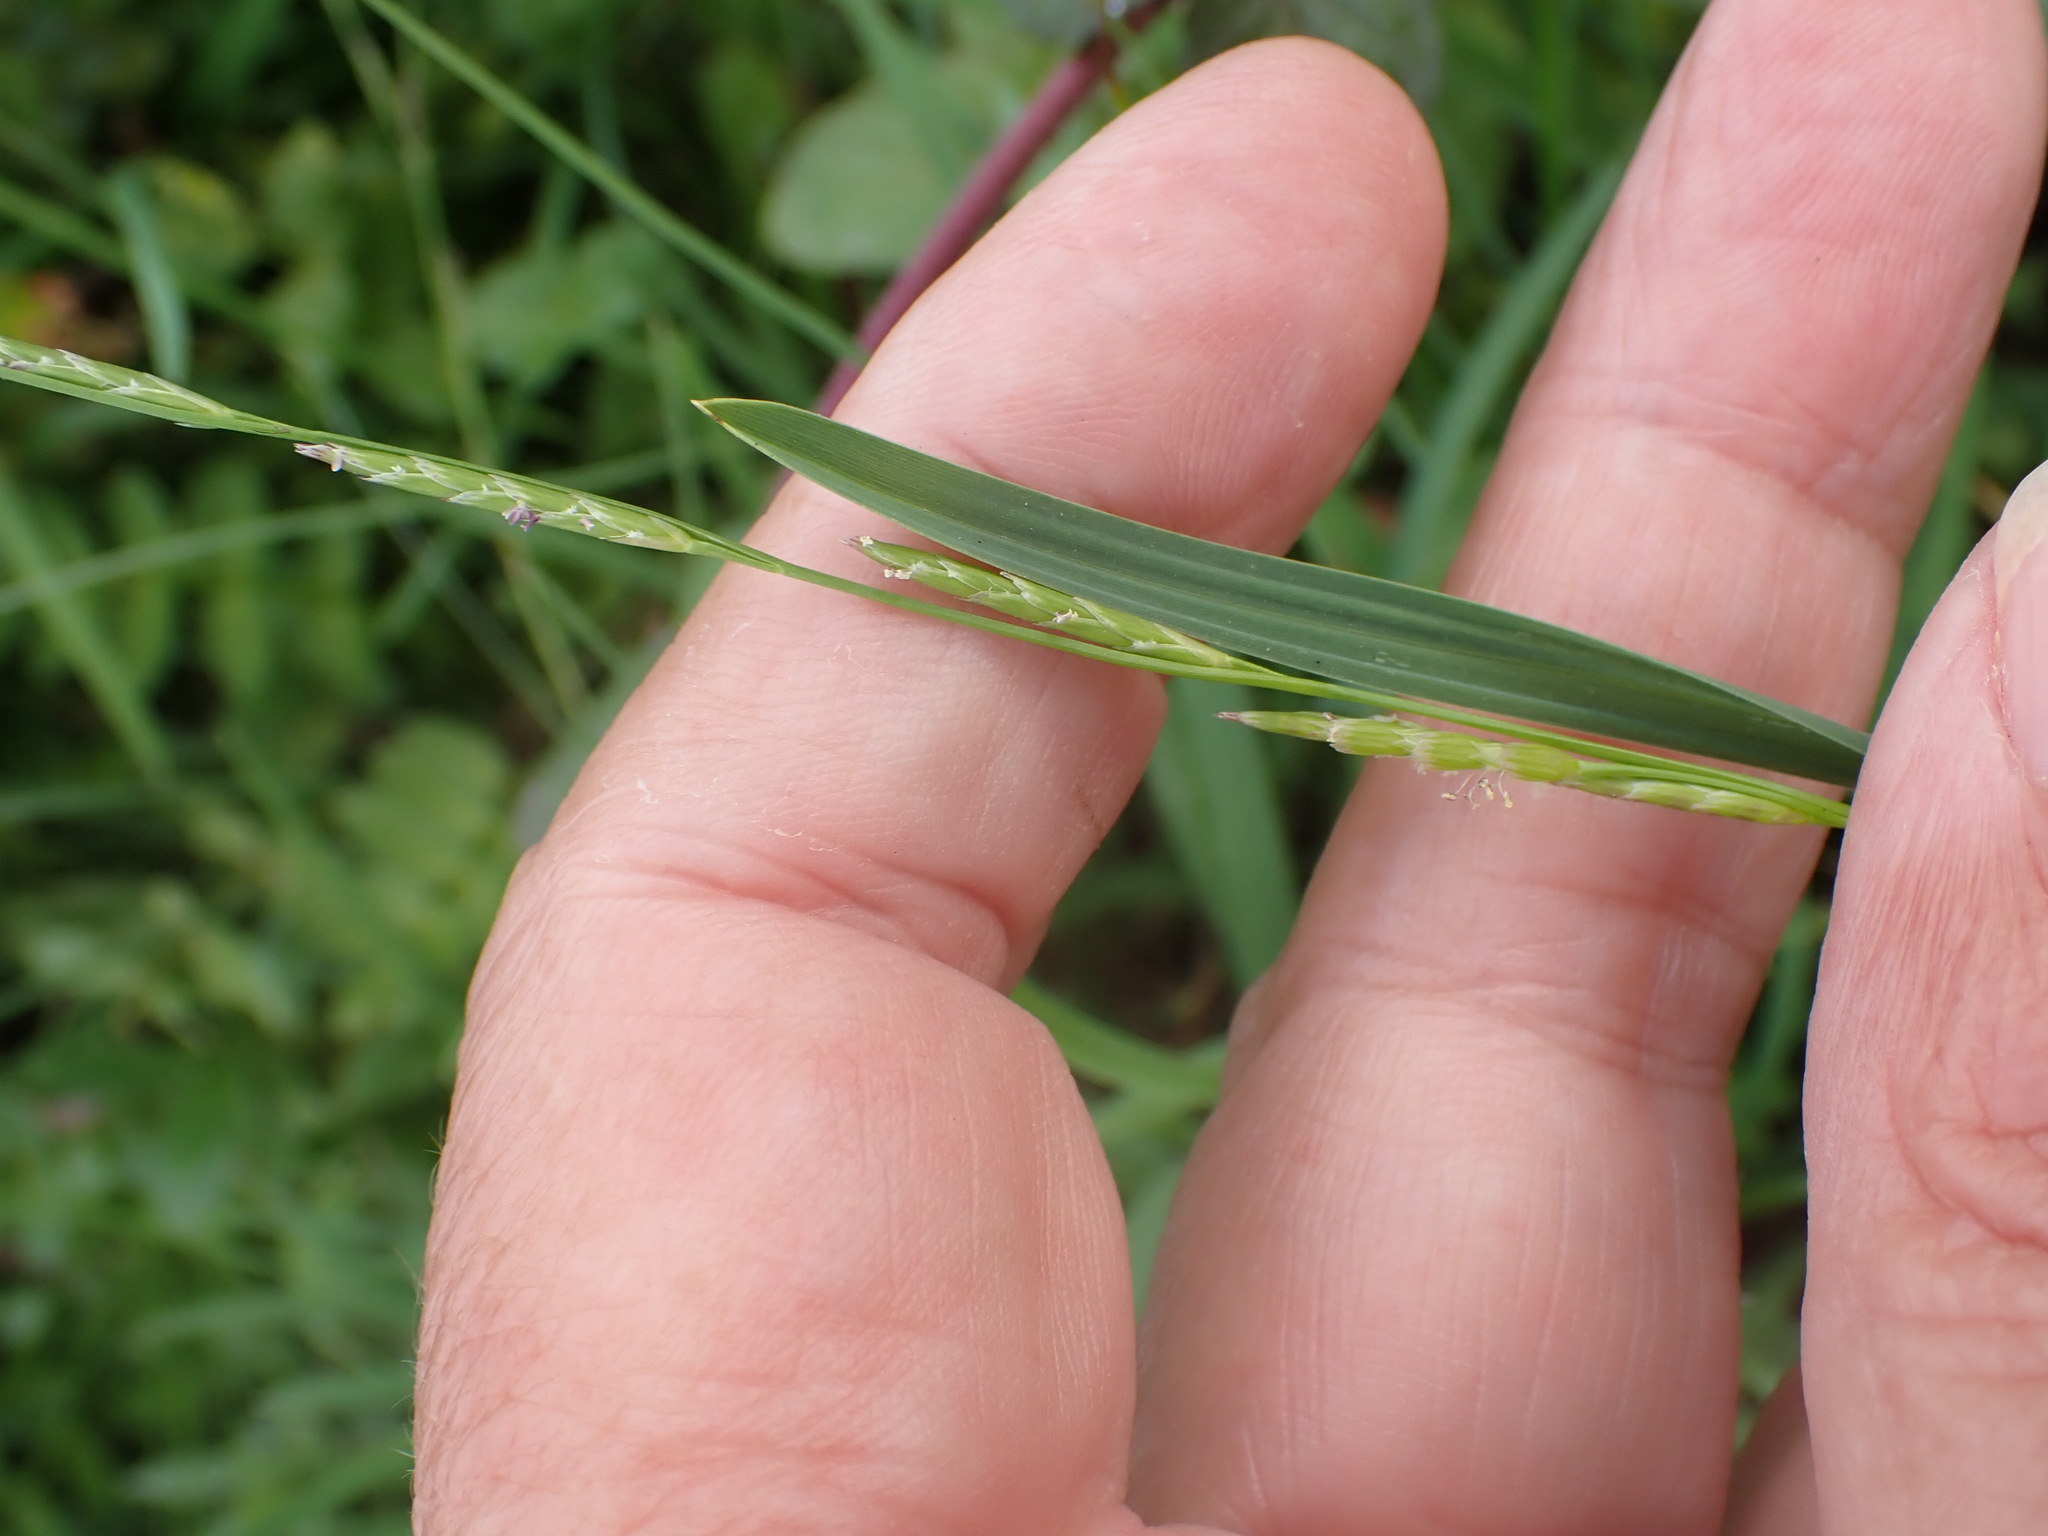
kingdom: Plantae
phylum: Tracheophyta
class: Liliopsida
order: Poales
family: Poaceae
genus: Glyceria
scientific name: Glyceria fluitans
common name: Floating sweet-grass
